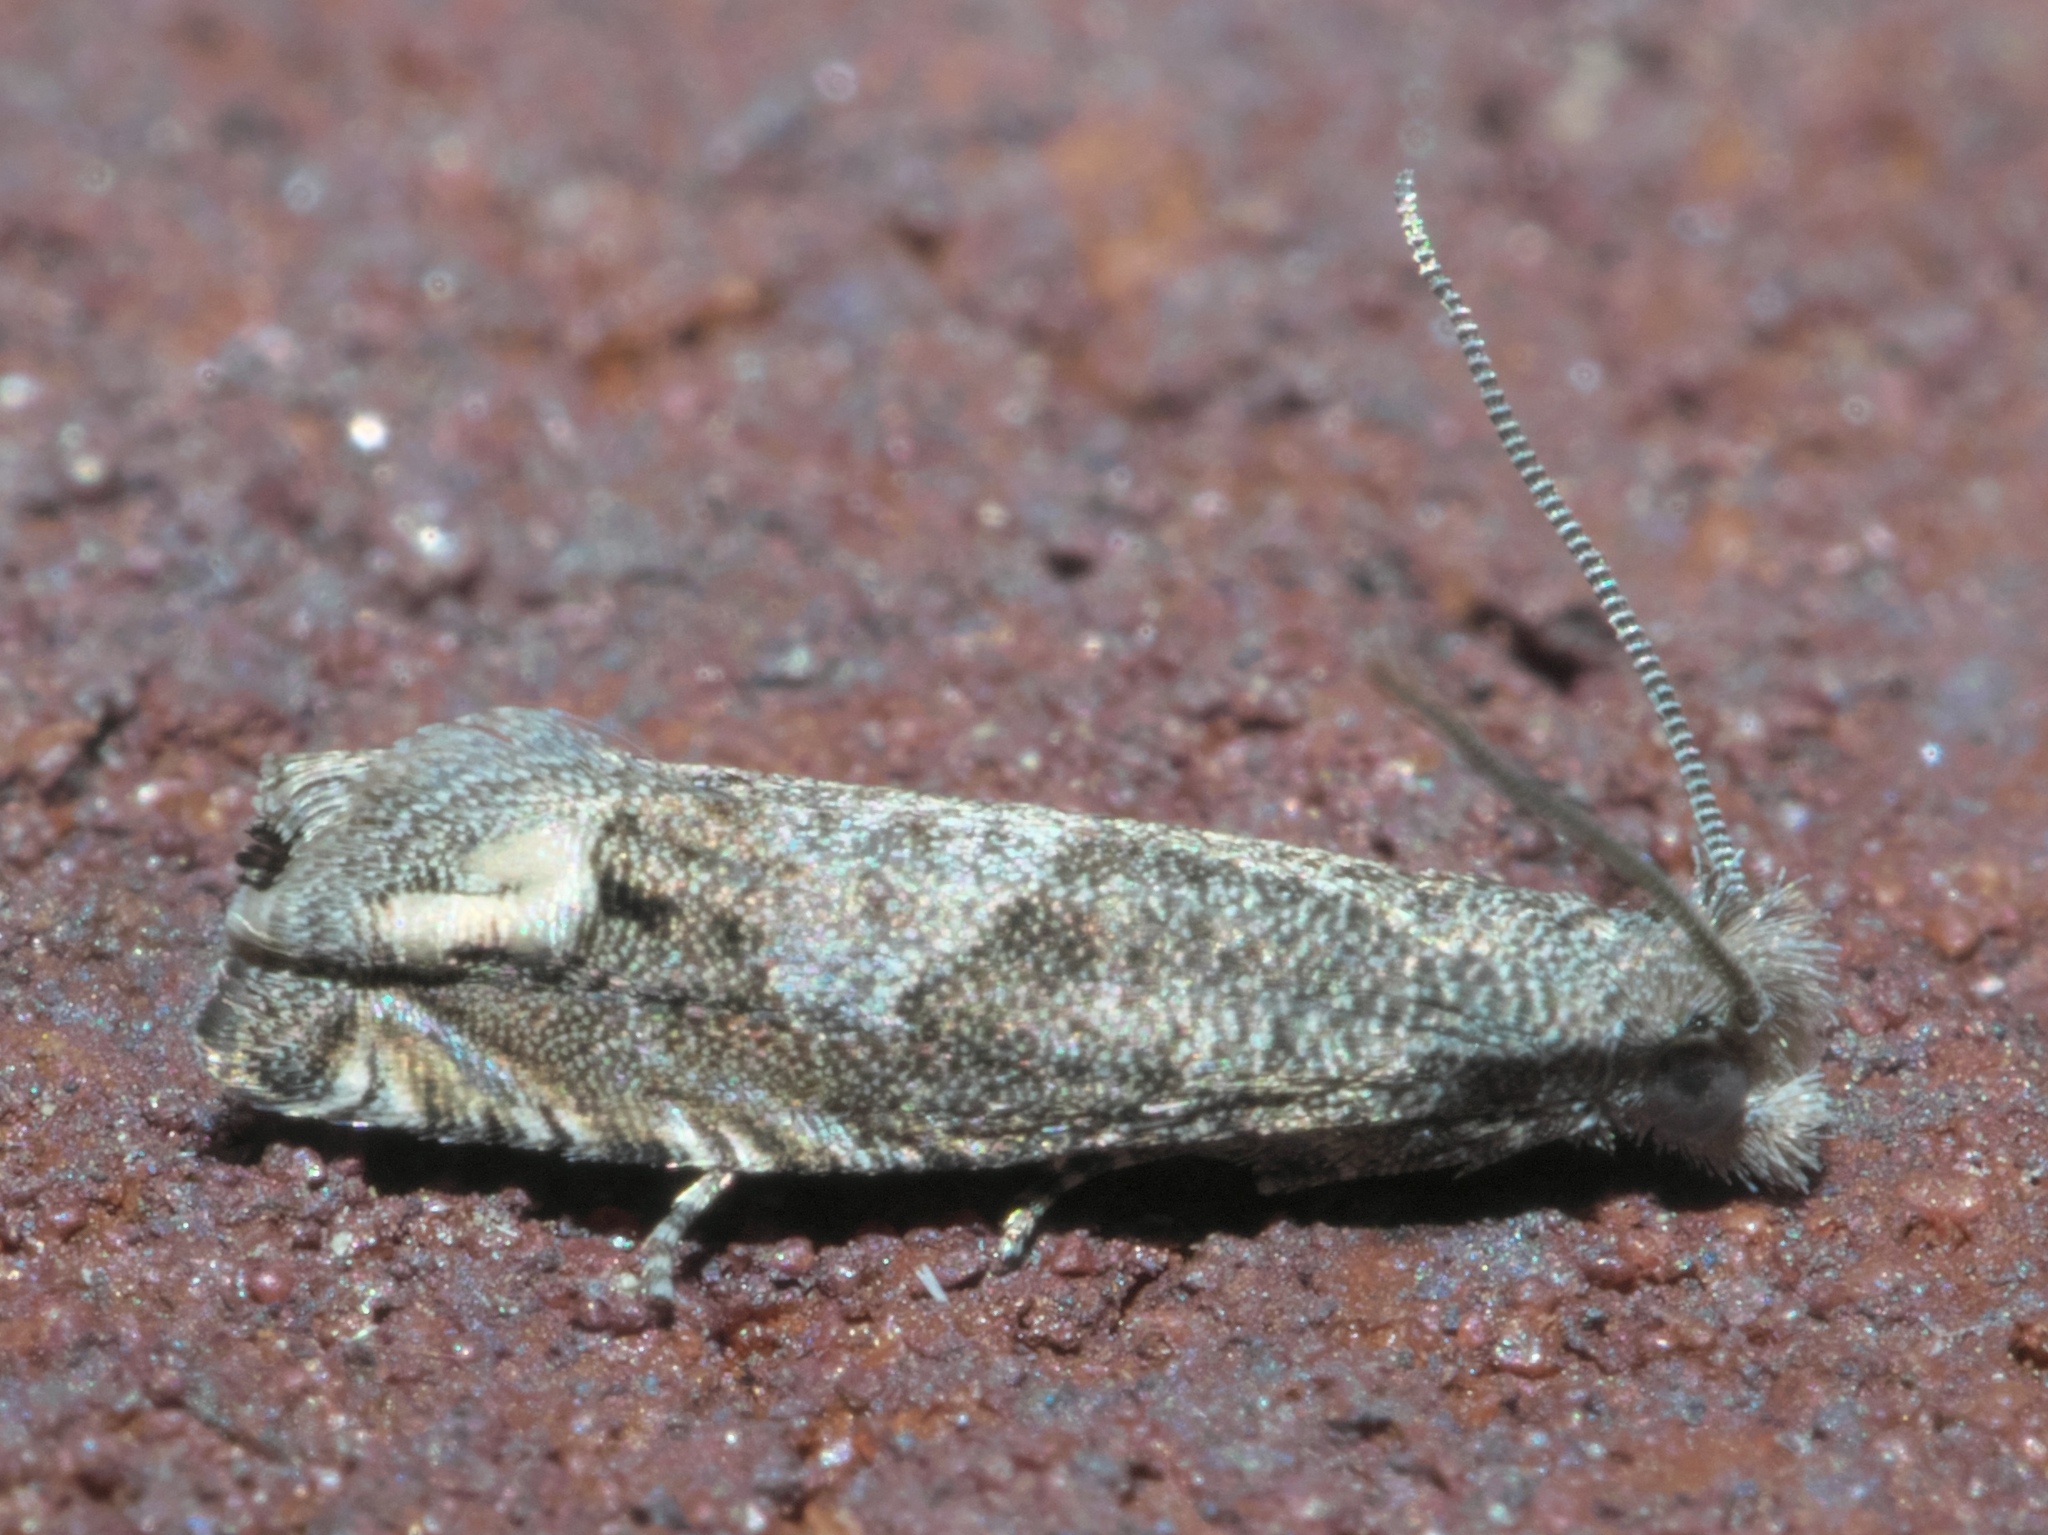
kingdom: Animalia
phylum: Arthropoda
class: Insecta
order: Lepidoptera
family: Tortricidae
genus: Epiblema
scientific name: Epiblema strenuana
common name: Ragweed borer moth
